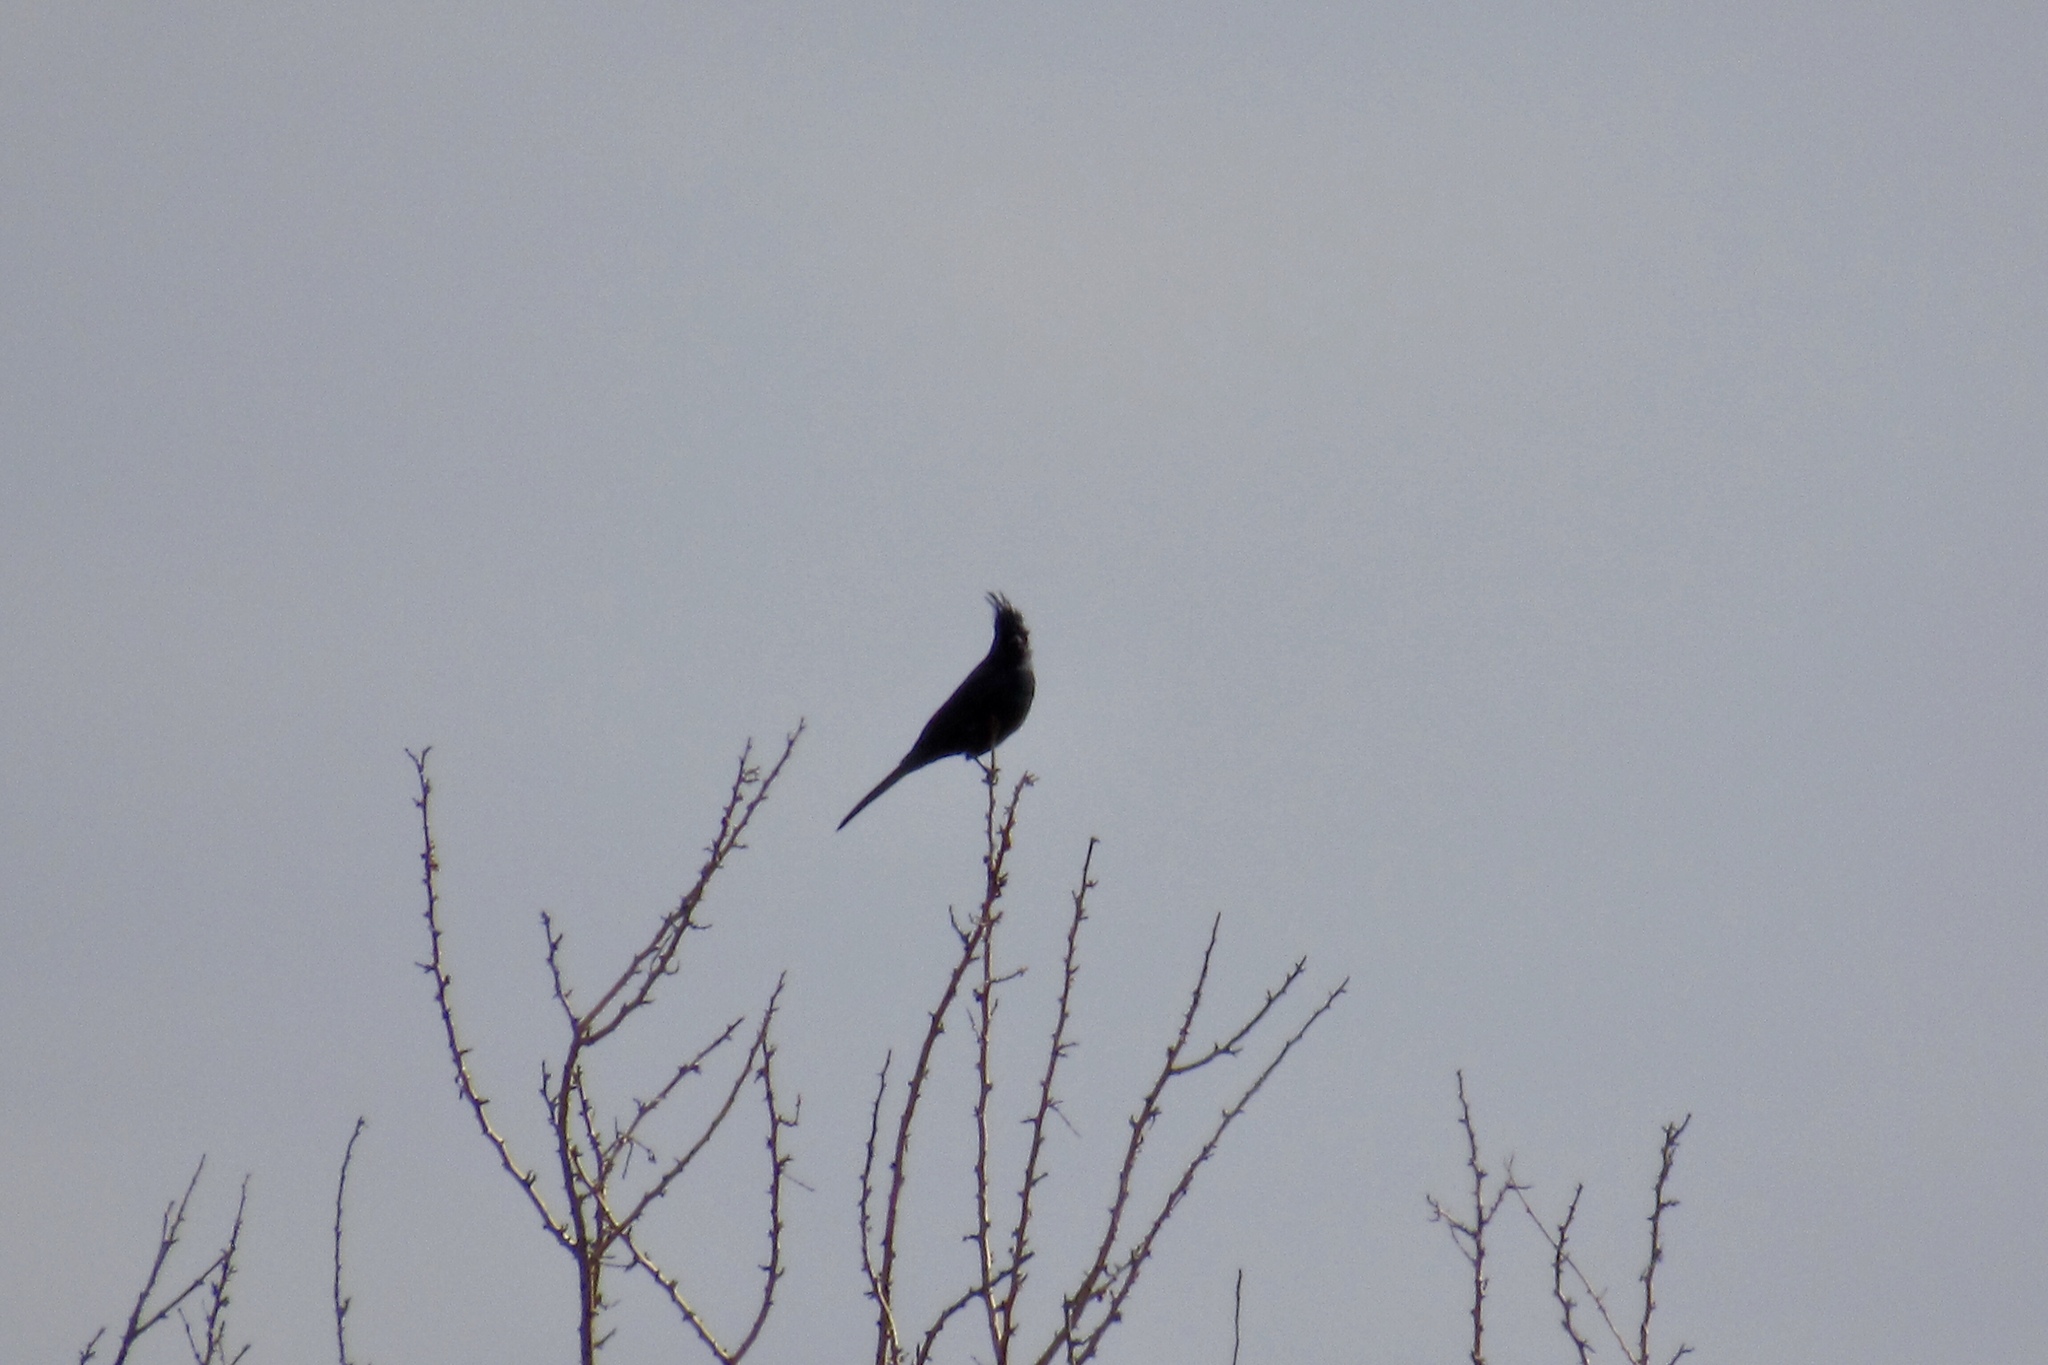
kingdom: Animalia
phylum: Chordata
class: Aves
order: Passeriformes
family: Ptilogonatidae
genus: Phainopepla
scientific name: Phainopepla nitens
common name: Phainopepla
